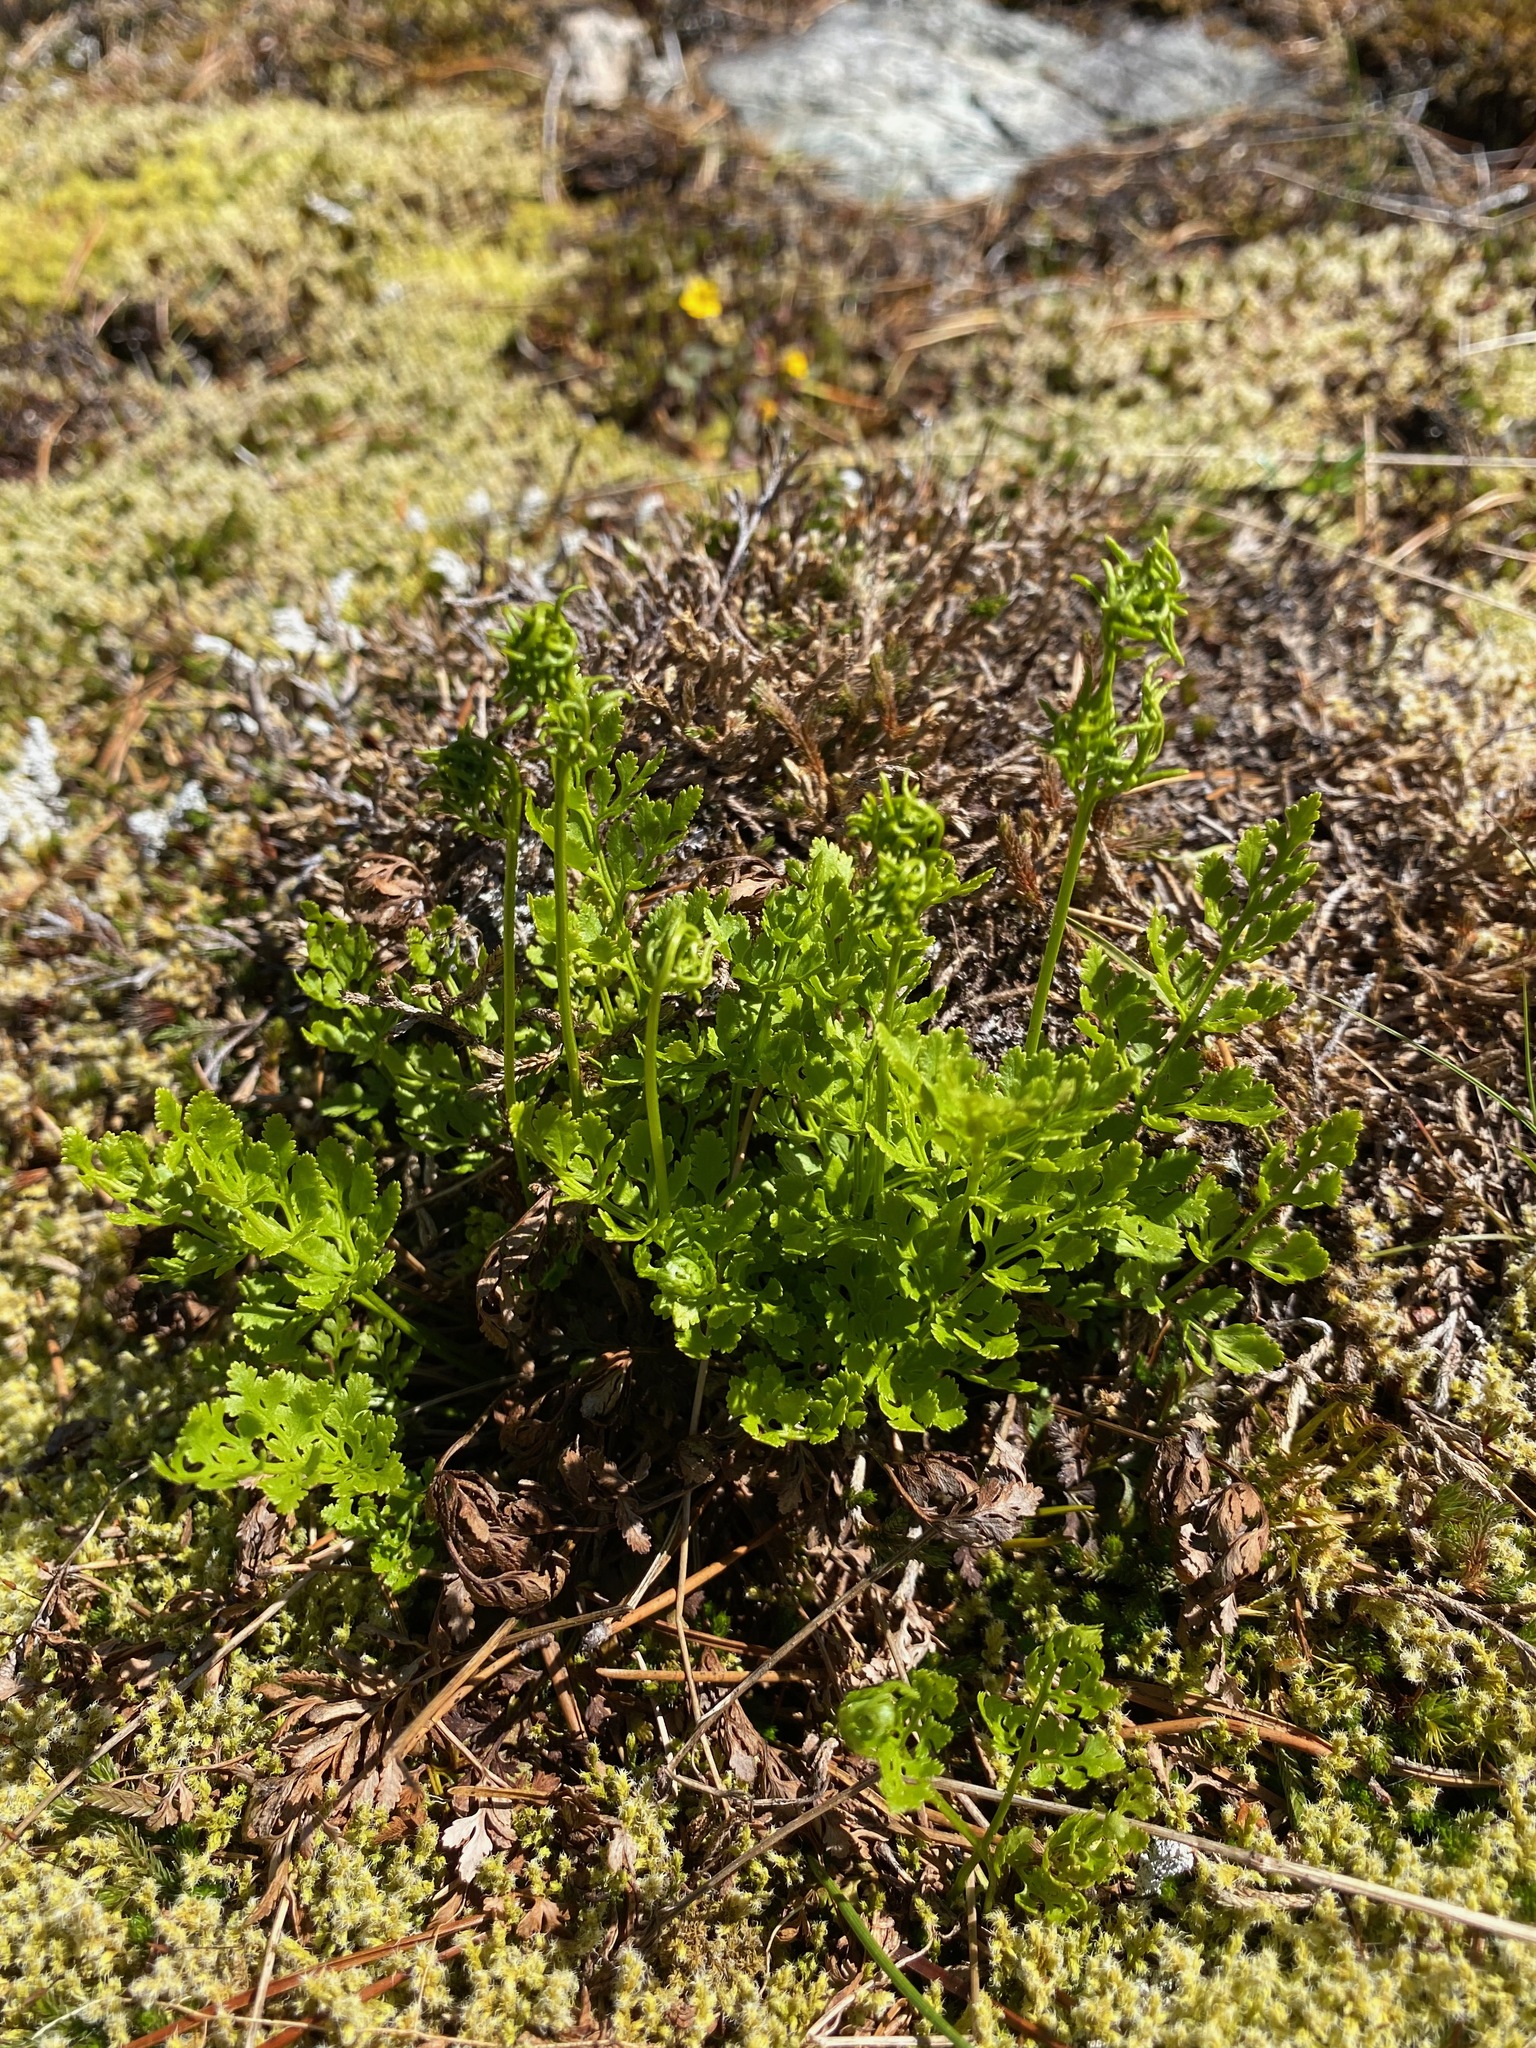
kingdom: Plantae
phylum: Tracheophyta
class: Polypodiopsida
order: Polypodiales
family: Pteridaceae
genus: Cryptogramma
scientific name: Cryptogramma acrostichoides
